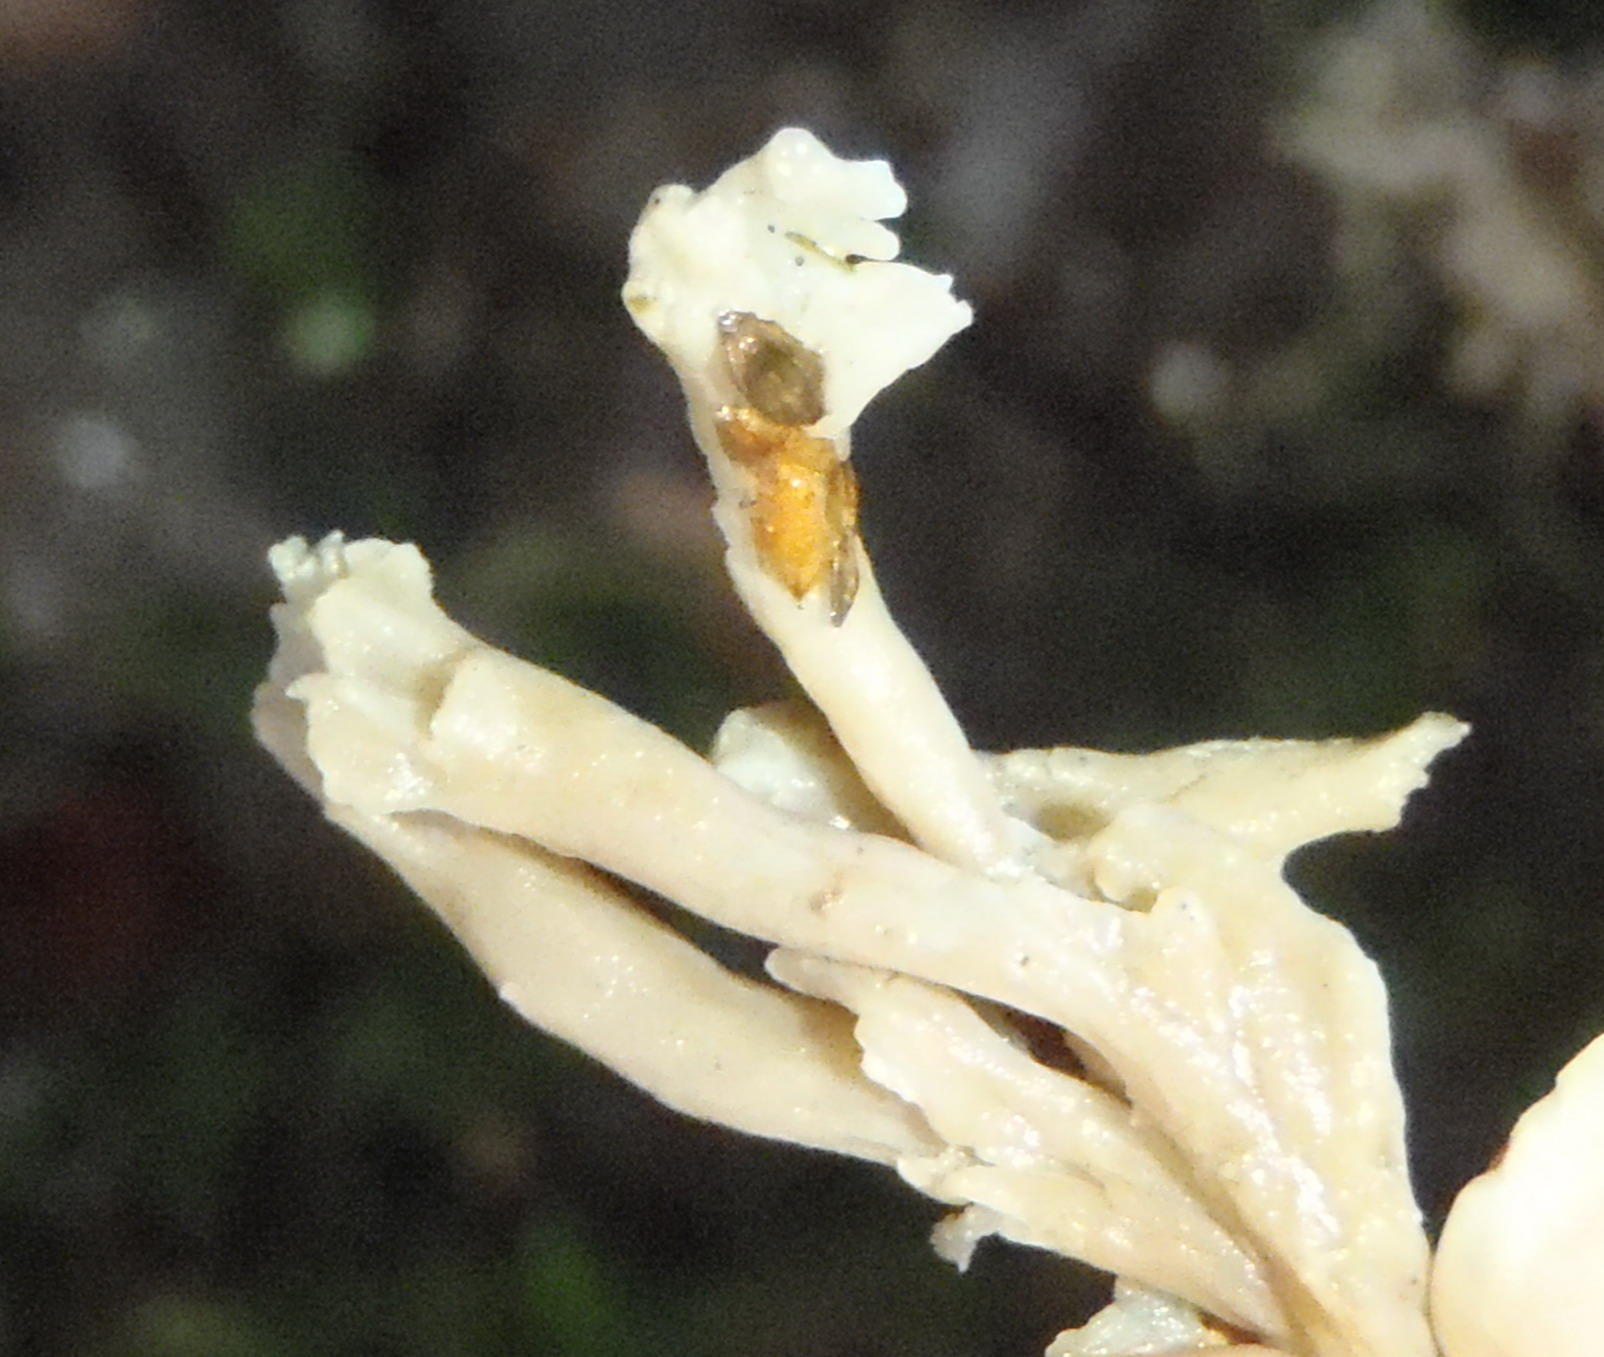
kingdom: Fungi
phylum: Basidiomycota
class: Agaricomycetes
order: Cantharellales
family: Hydnaceae
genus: Clavulina
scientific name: Clavulina coralloides
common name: Crested coral
